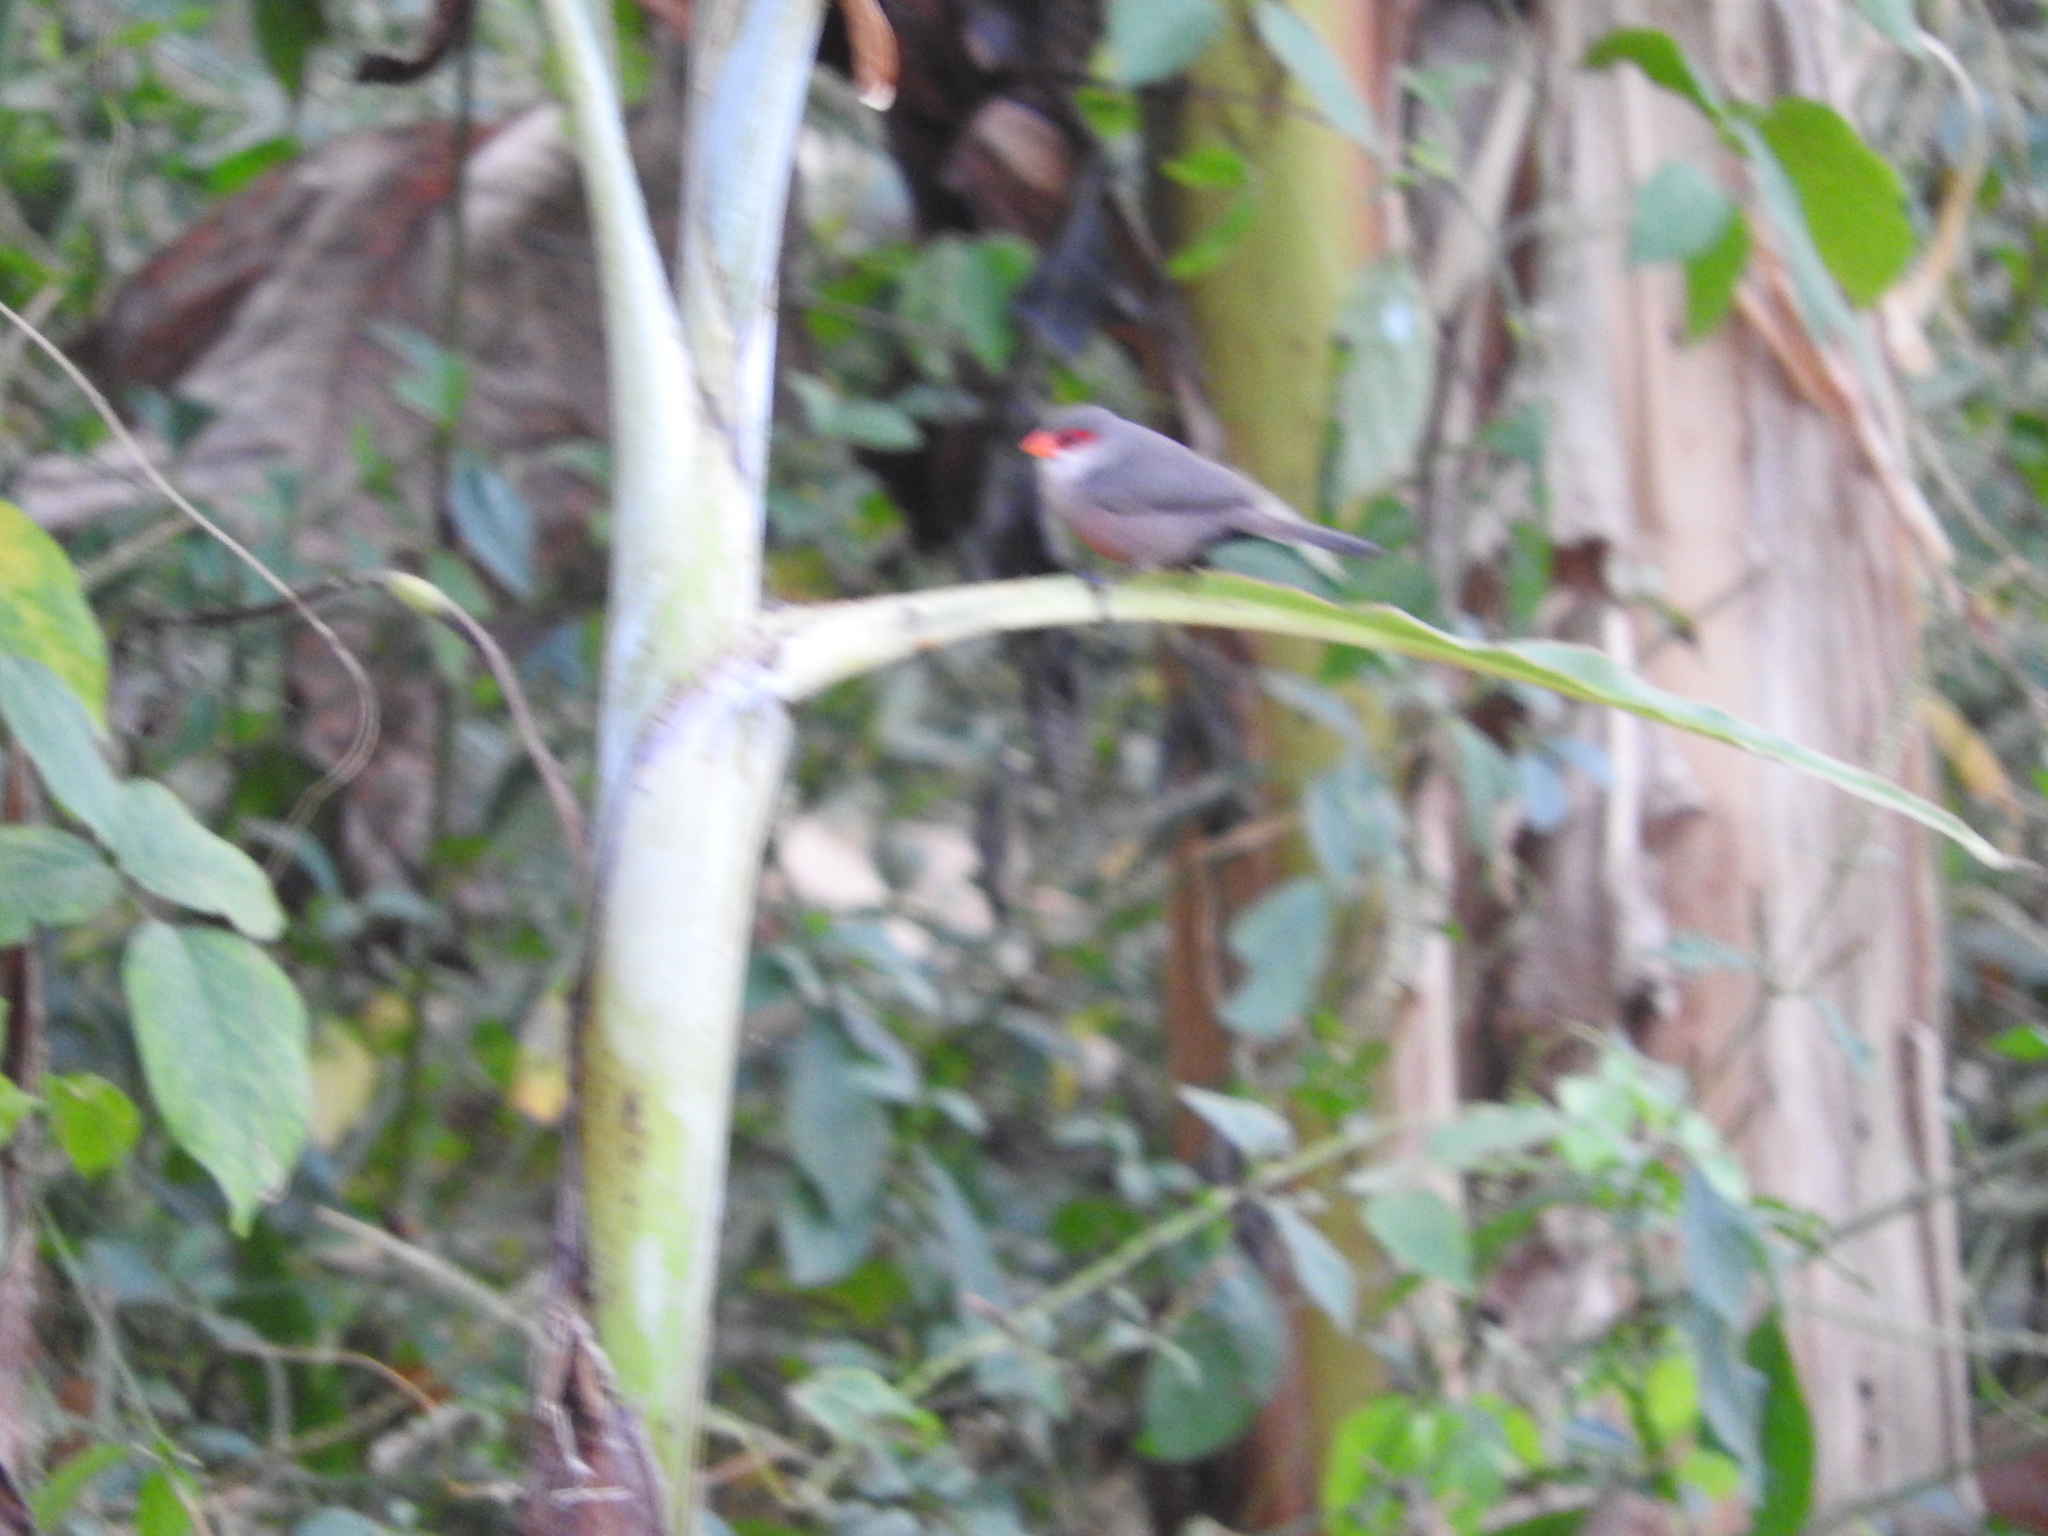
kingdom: Animalia
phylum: Chordata
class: Aves
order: Passeriformes
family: Estrildidae
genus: Estrilda
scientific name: Estrilda astrild
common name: Common waxbill
